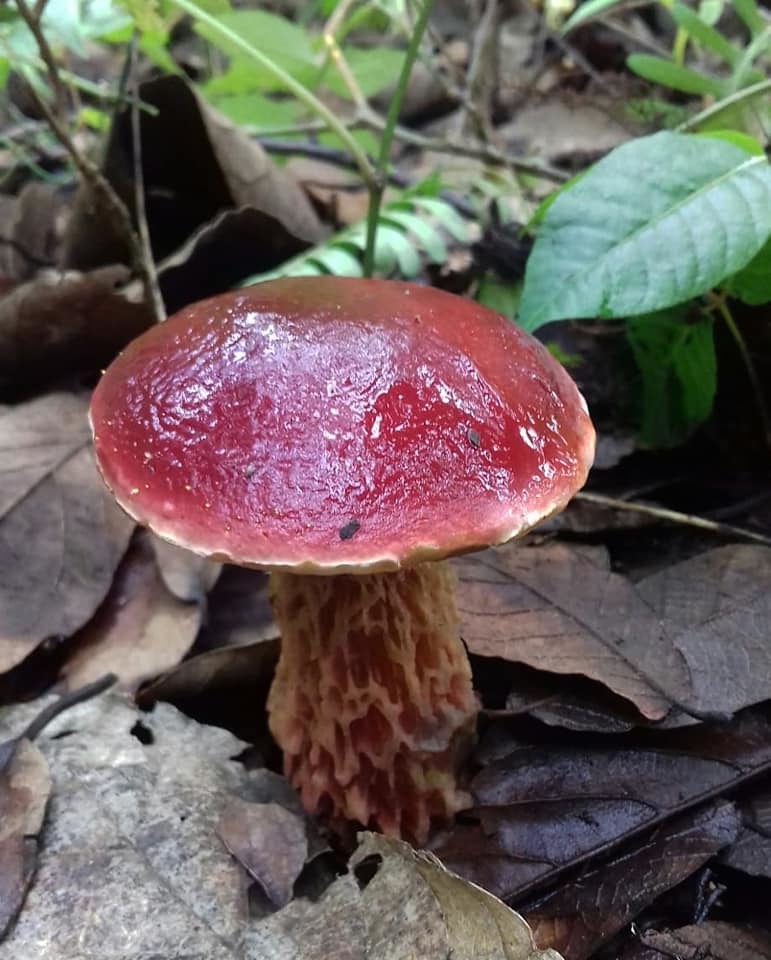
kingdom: Fungi
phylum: Basidiomycota
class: Agaricomycetes
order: Boletales
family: Boletaceae
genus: Butyriboletus
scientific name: Butyriboletus frostii
